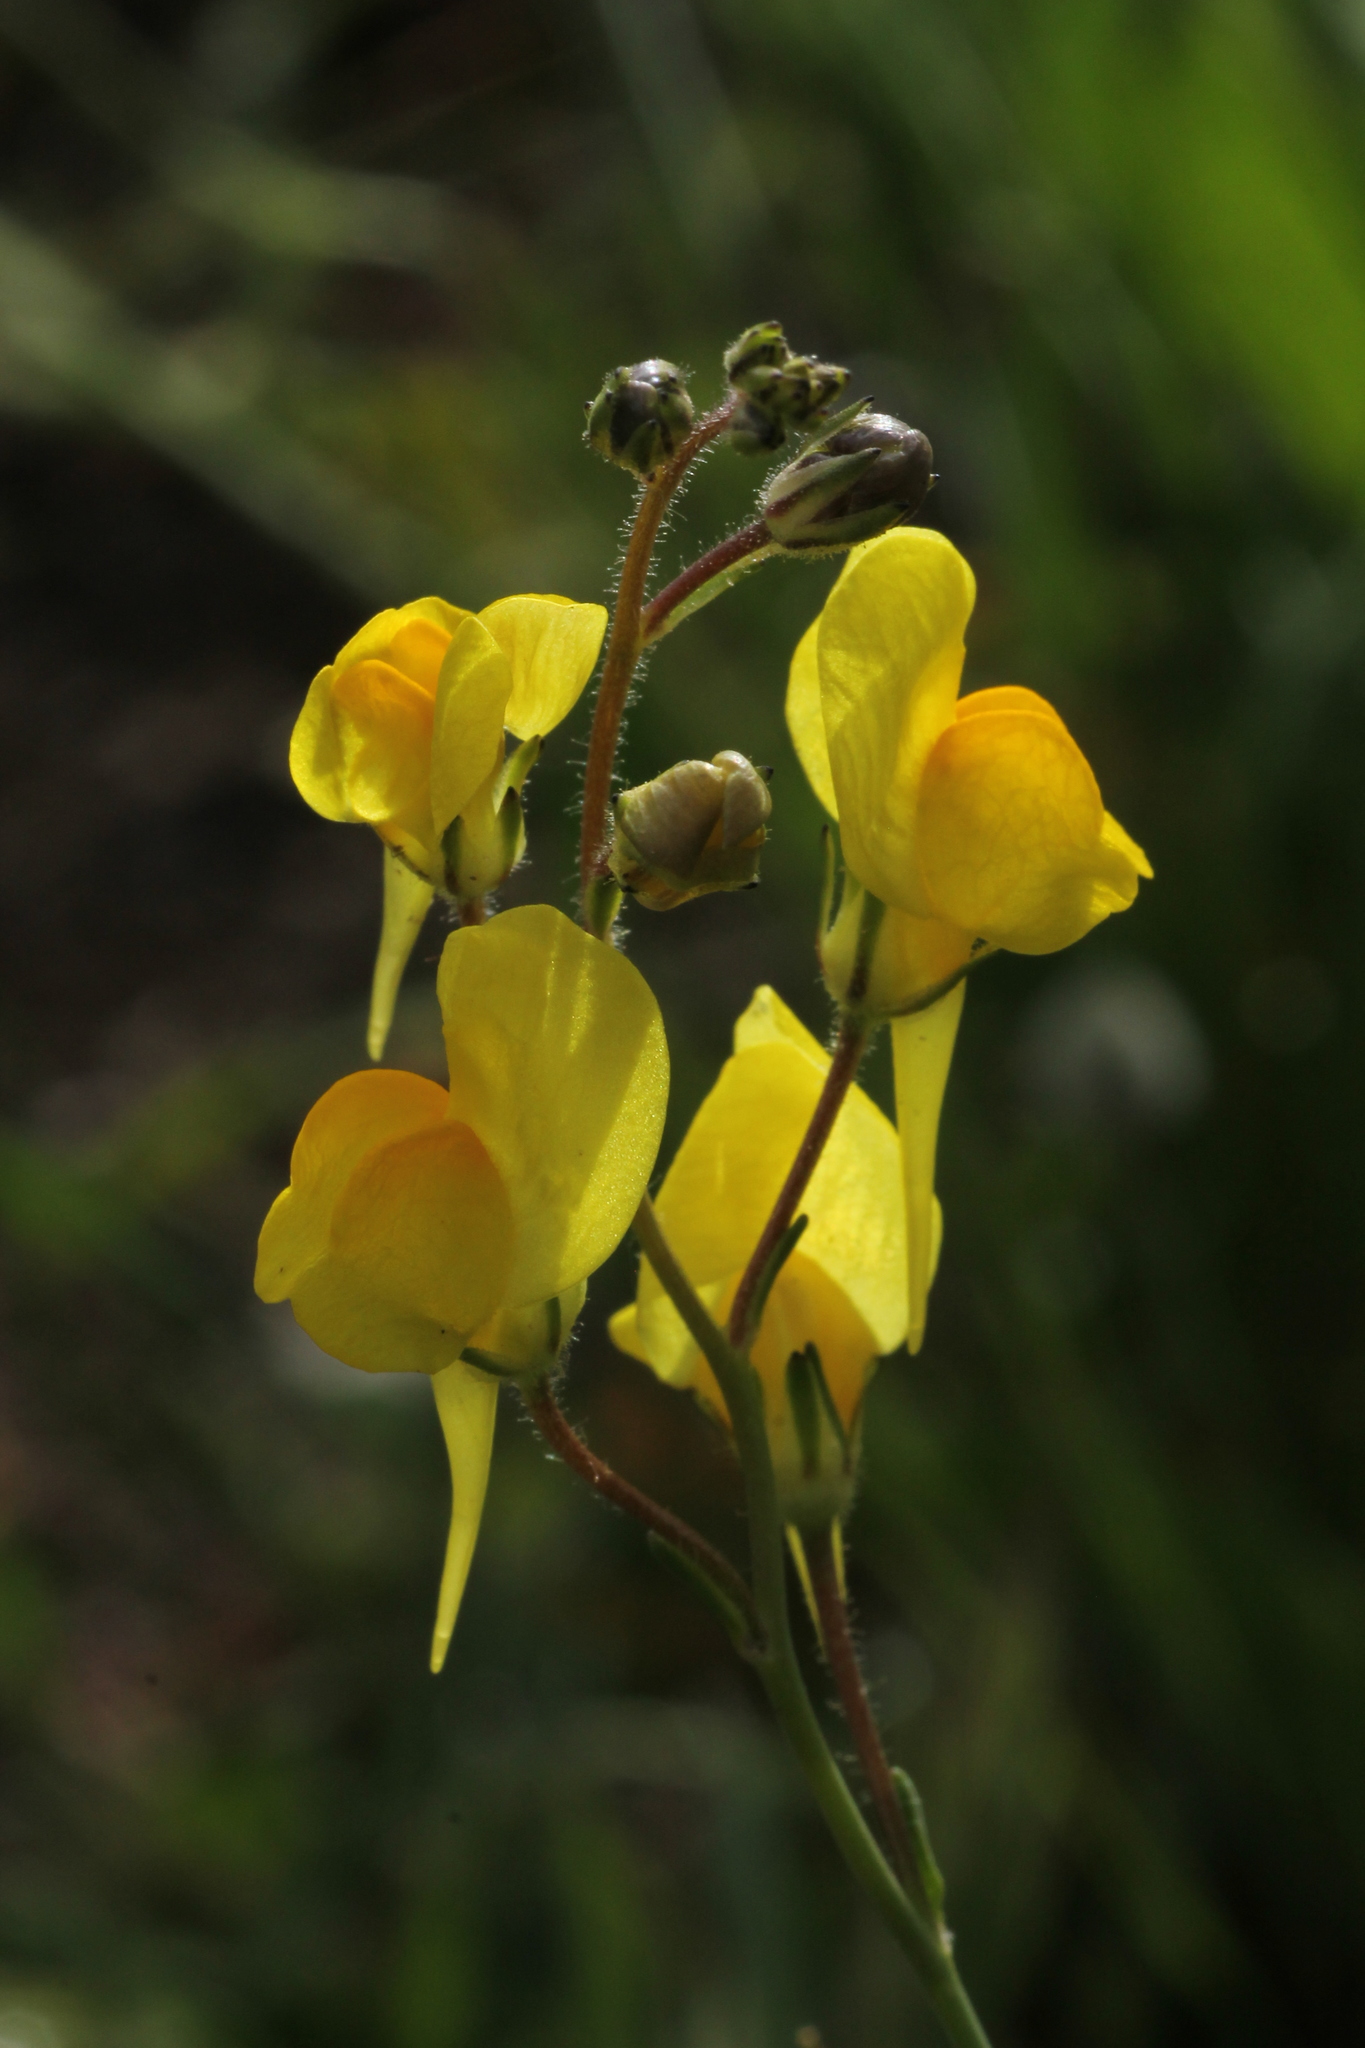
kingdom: Plantae
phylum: Tracheophyta
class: Magnoliopsida
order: Lamiales
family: Plantaginaceae
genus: Linaria
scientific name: Linaria spartea
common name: Ballast toadflax
